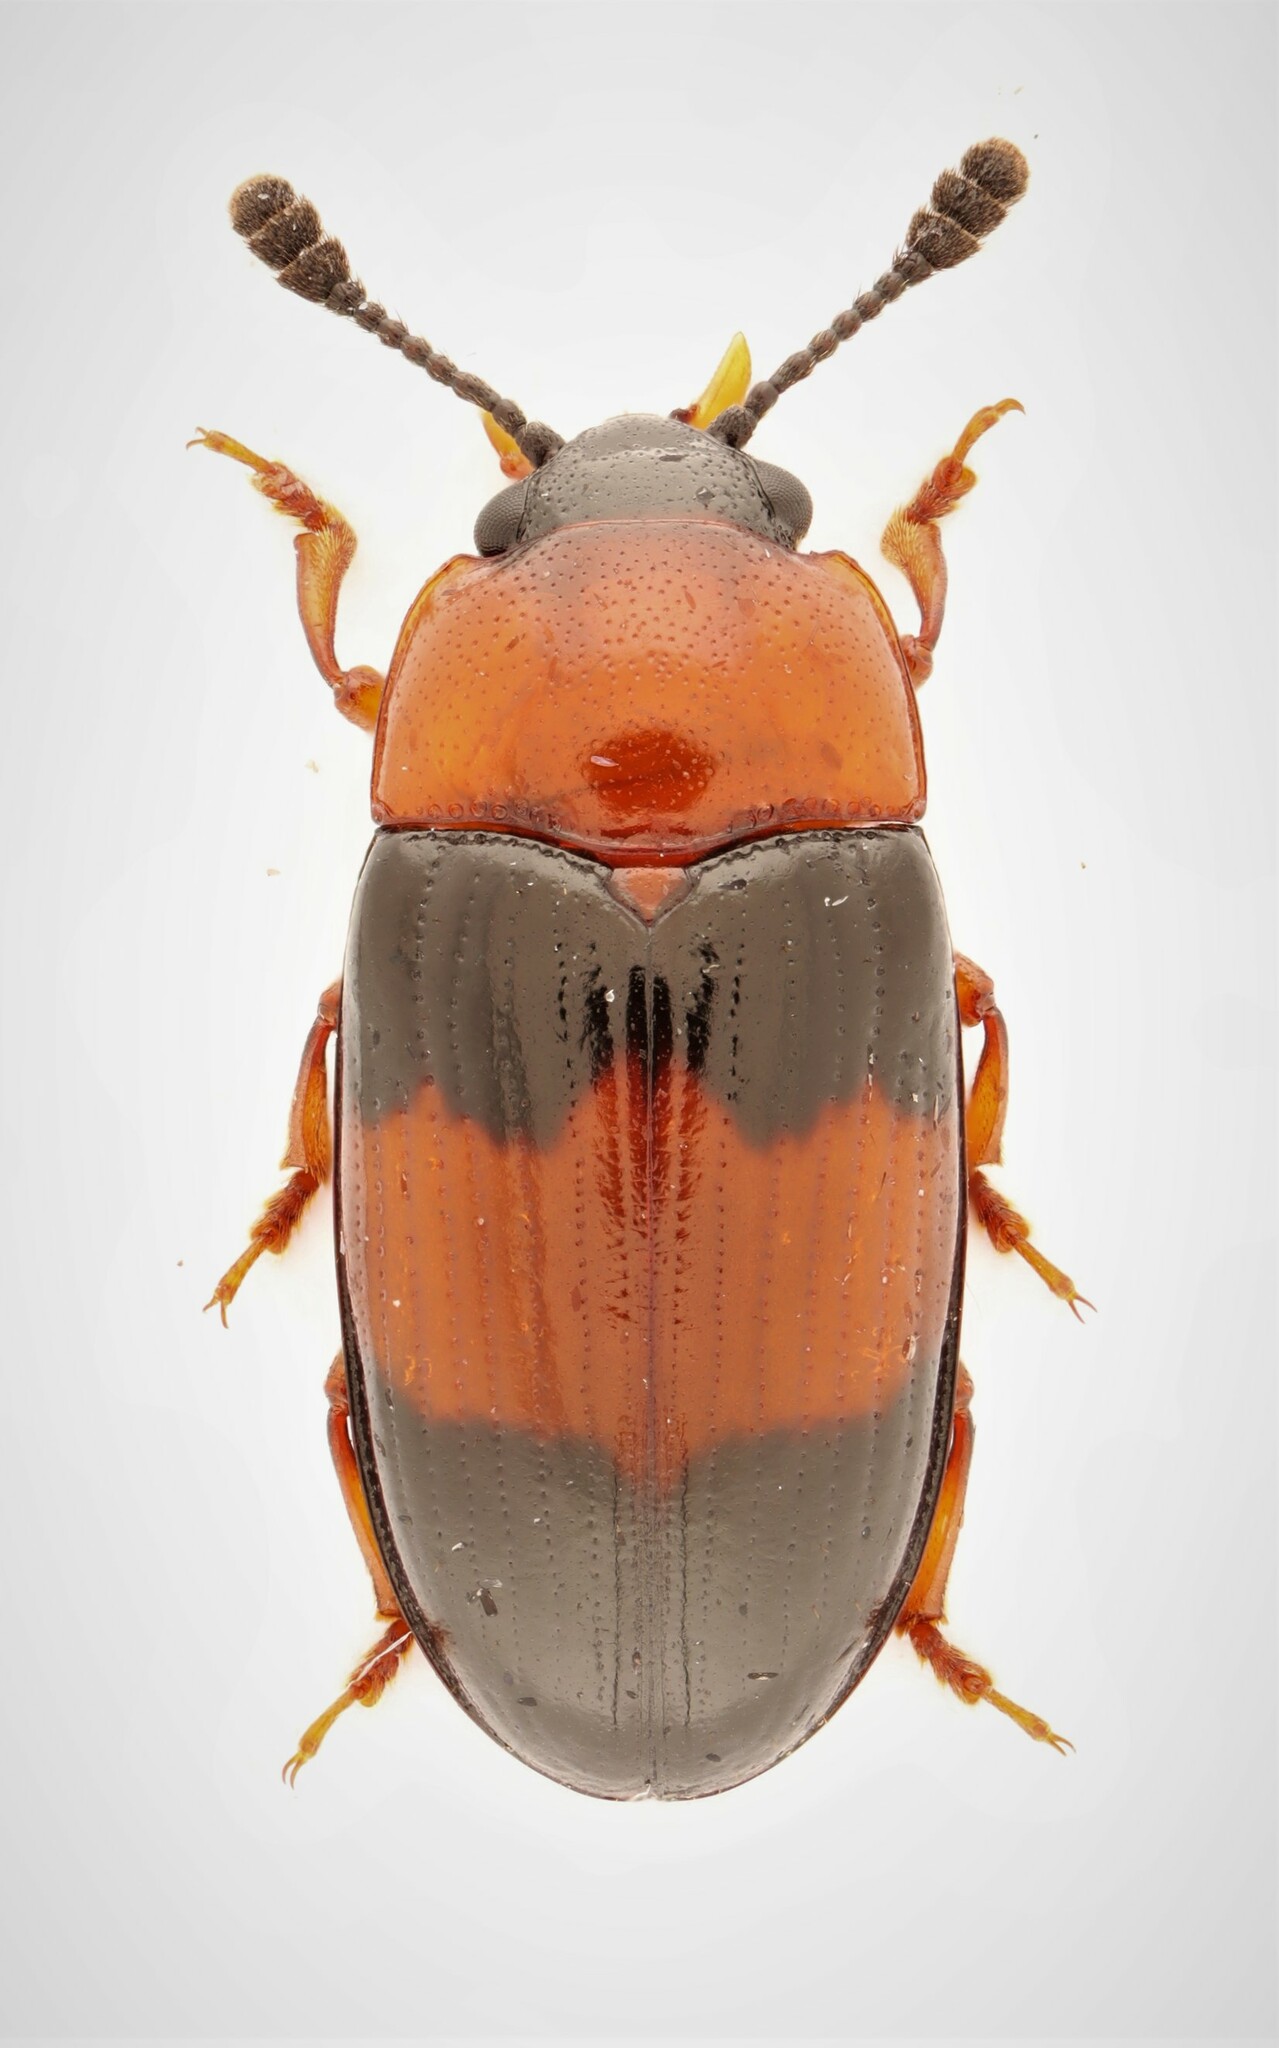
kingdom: Animalia
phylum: Arthropoda
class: Insecta
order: Coleoptera
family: Erotylidae
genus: Triplax
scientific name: Triplax festiva
